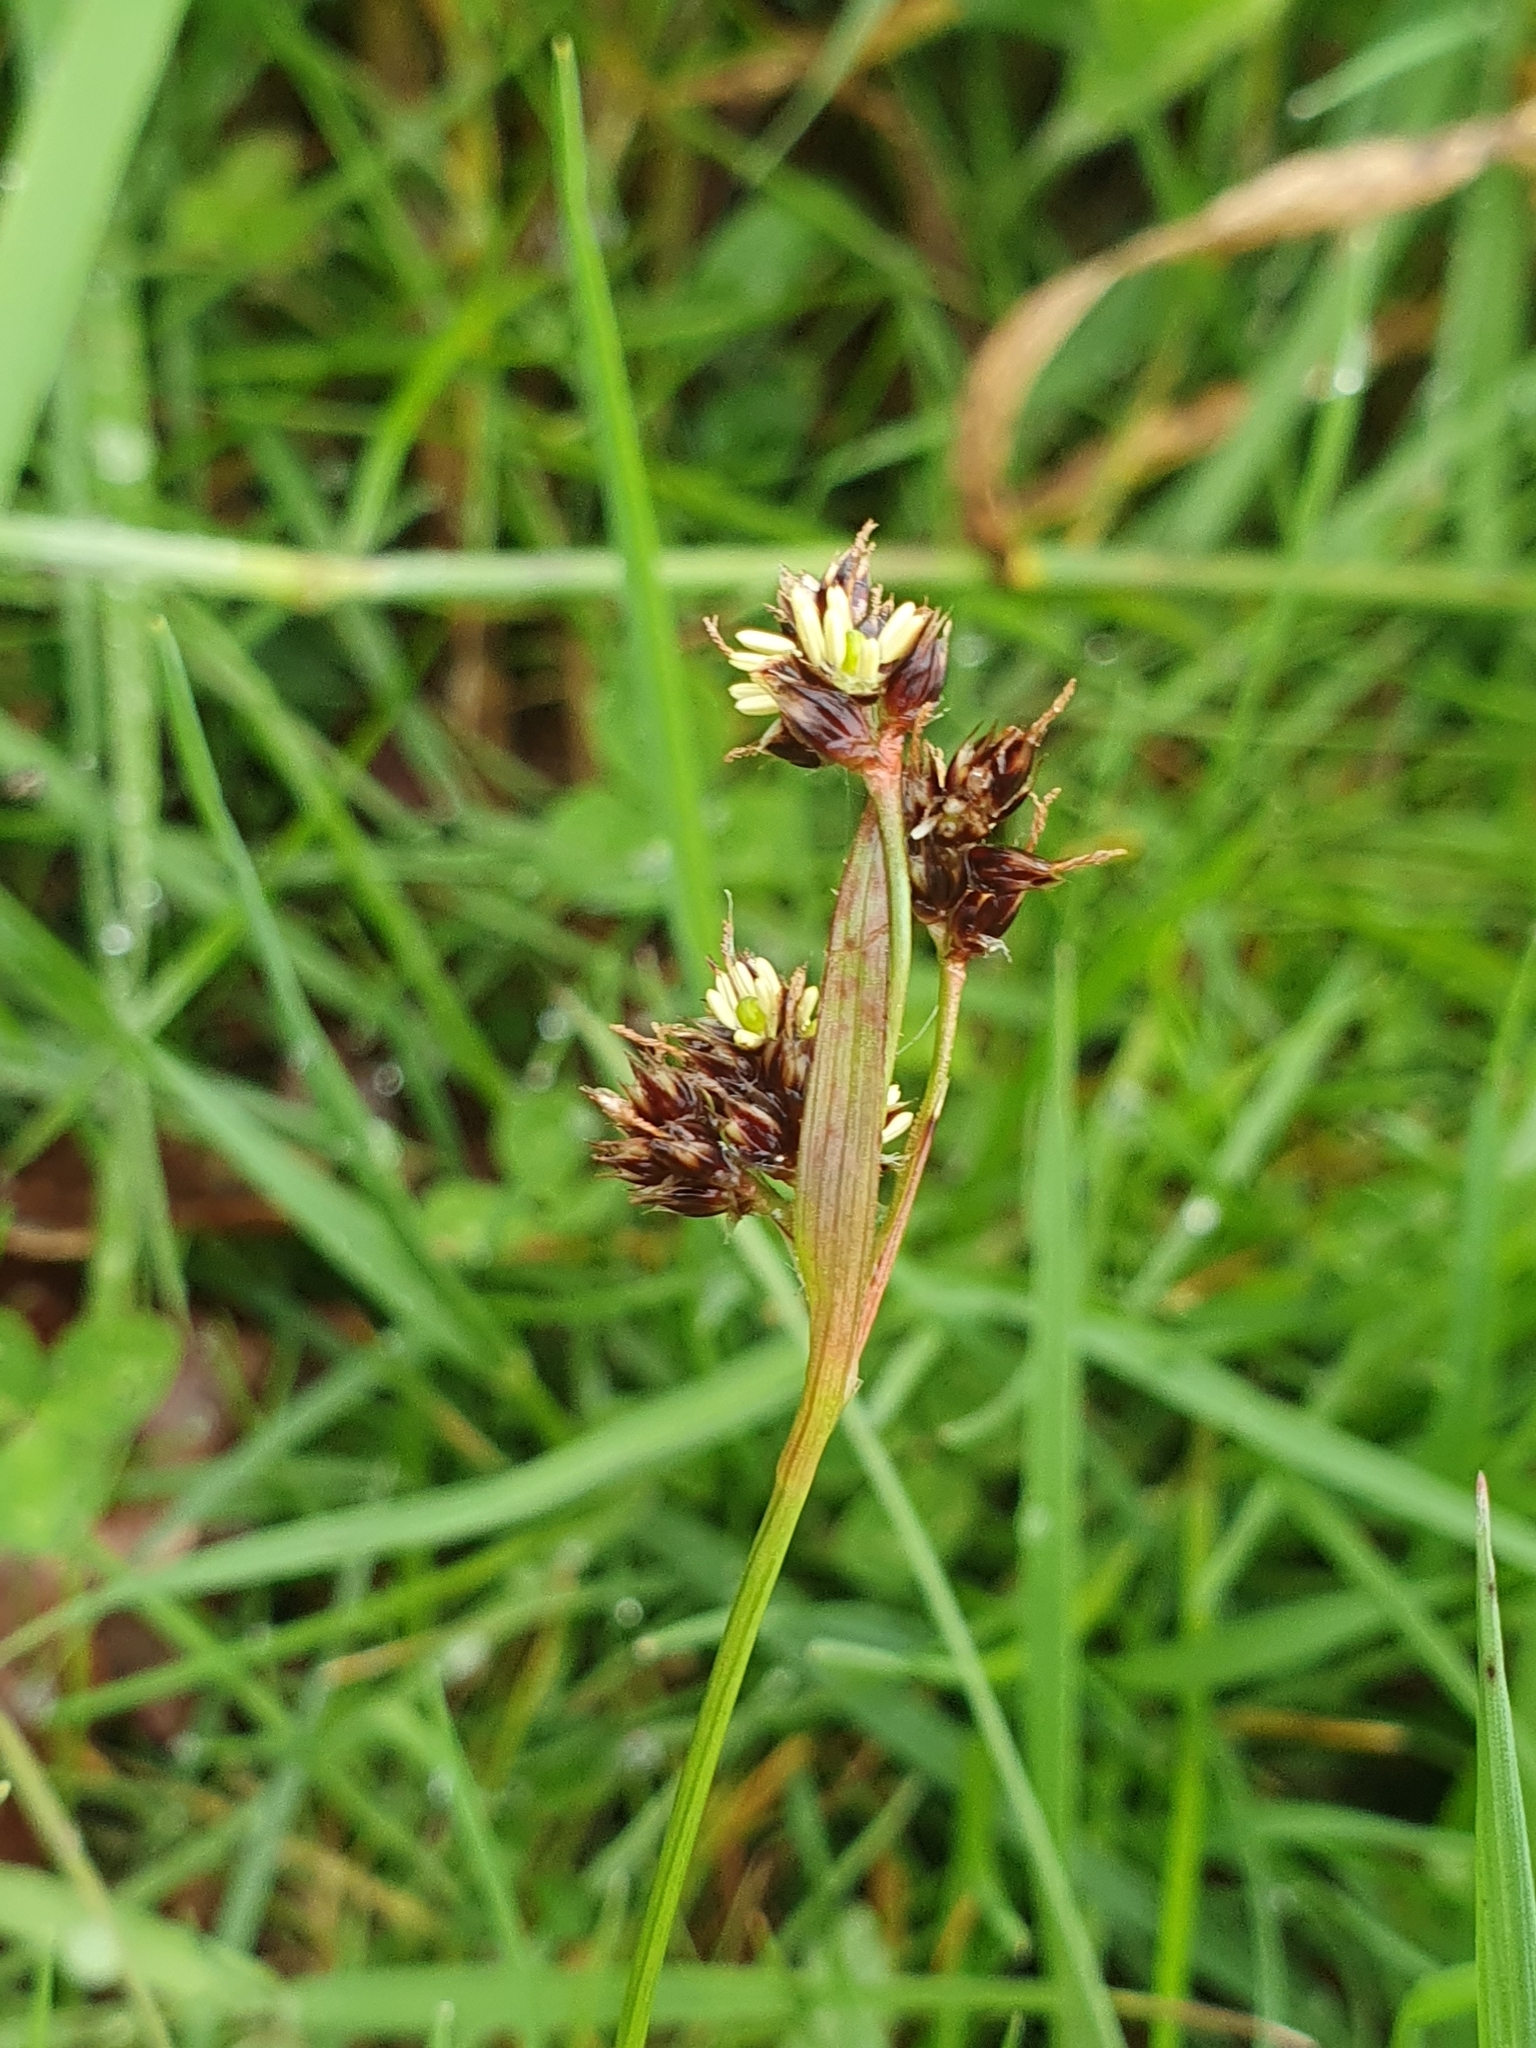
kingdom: Plantae
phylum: Tracheophyta
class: Liliopsida
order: Poales
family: Juncaceae
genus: Luzula
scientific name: Luzula campestris
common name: Field wood-rush
